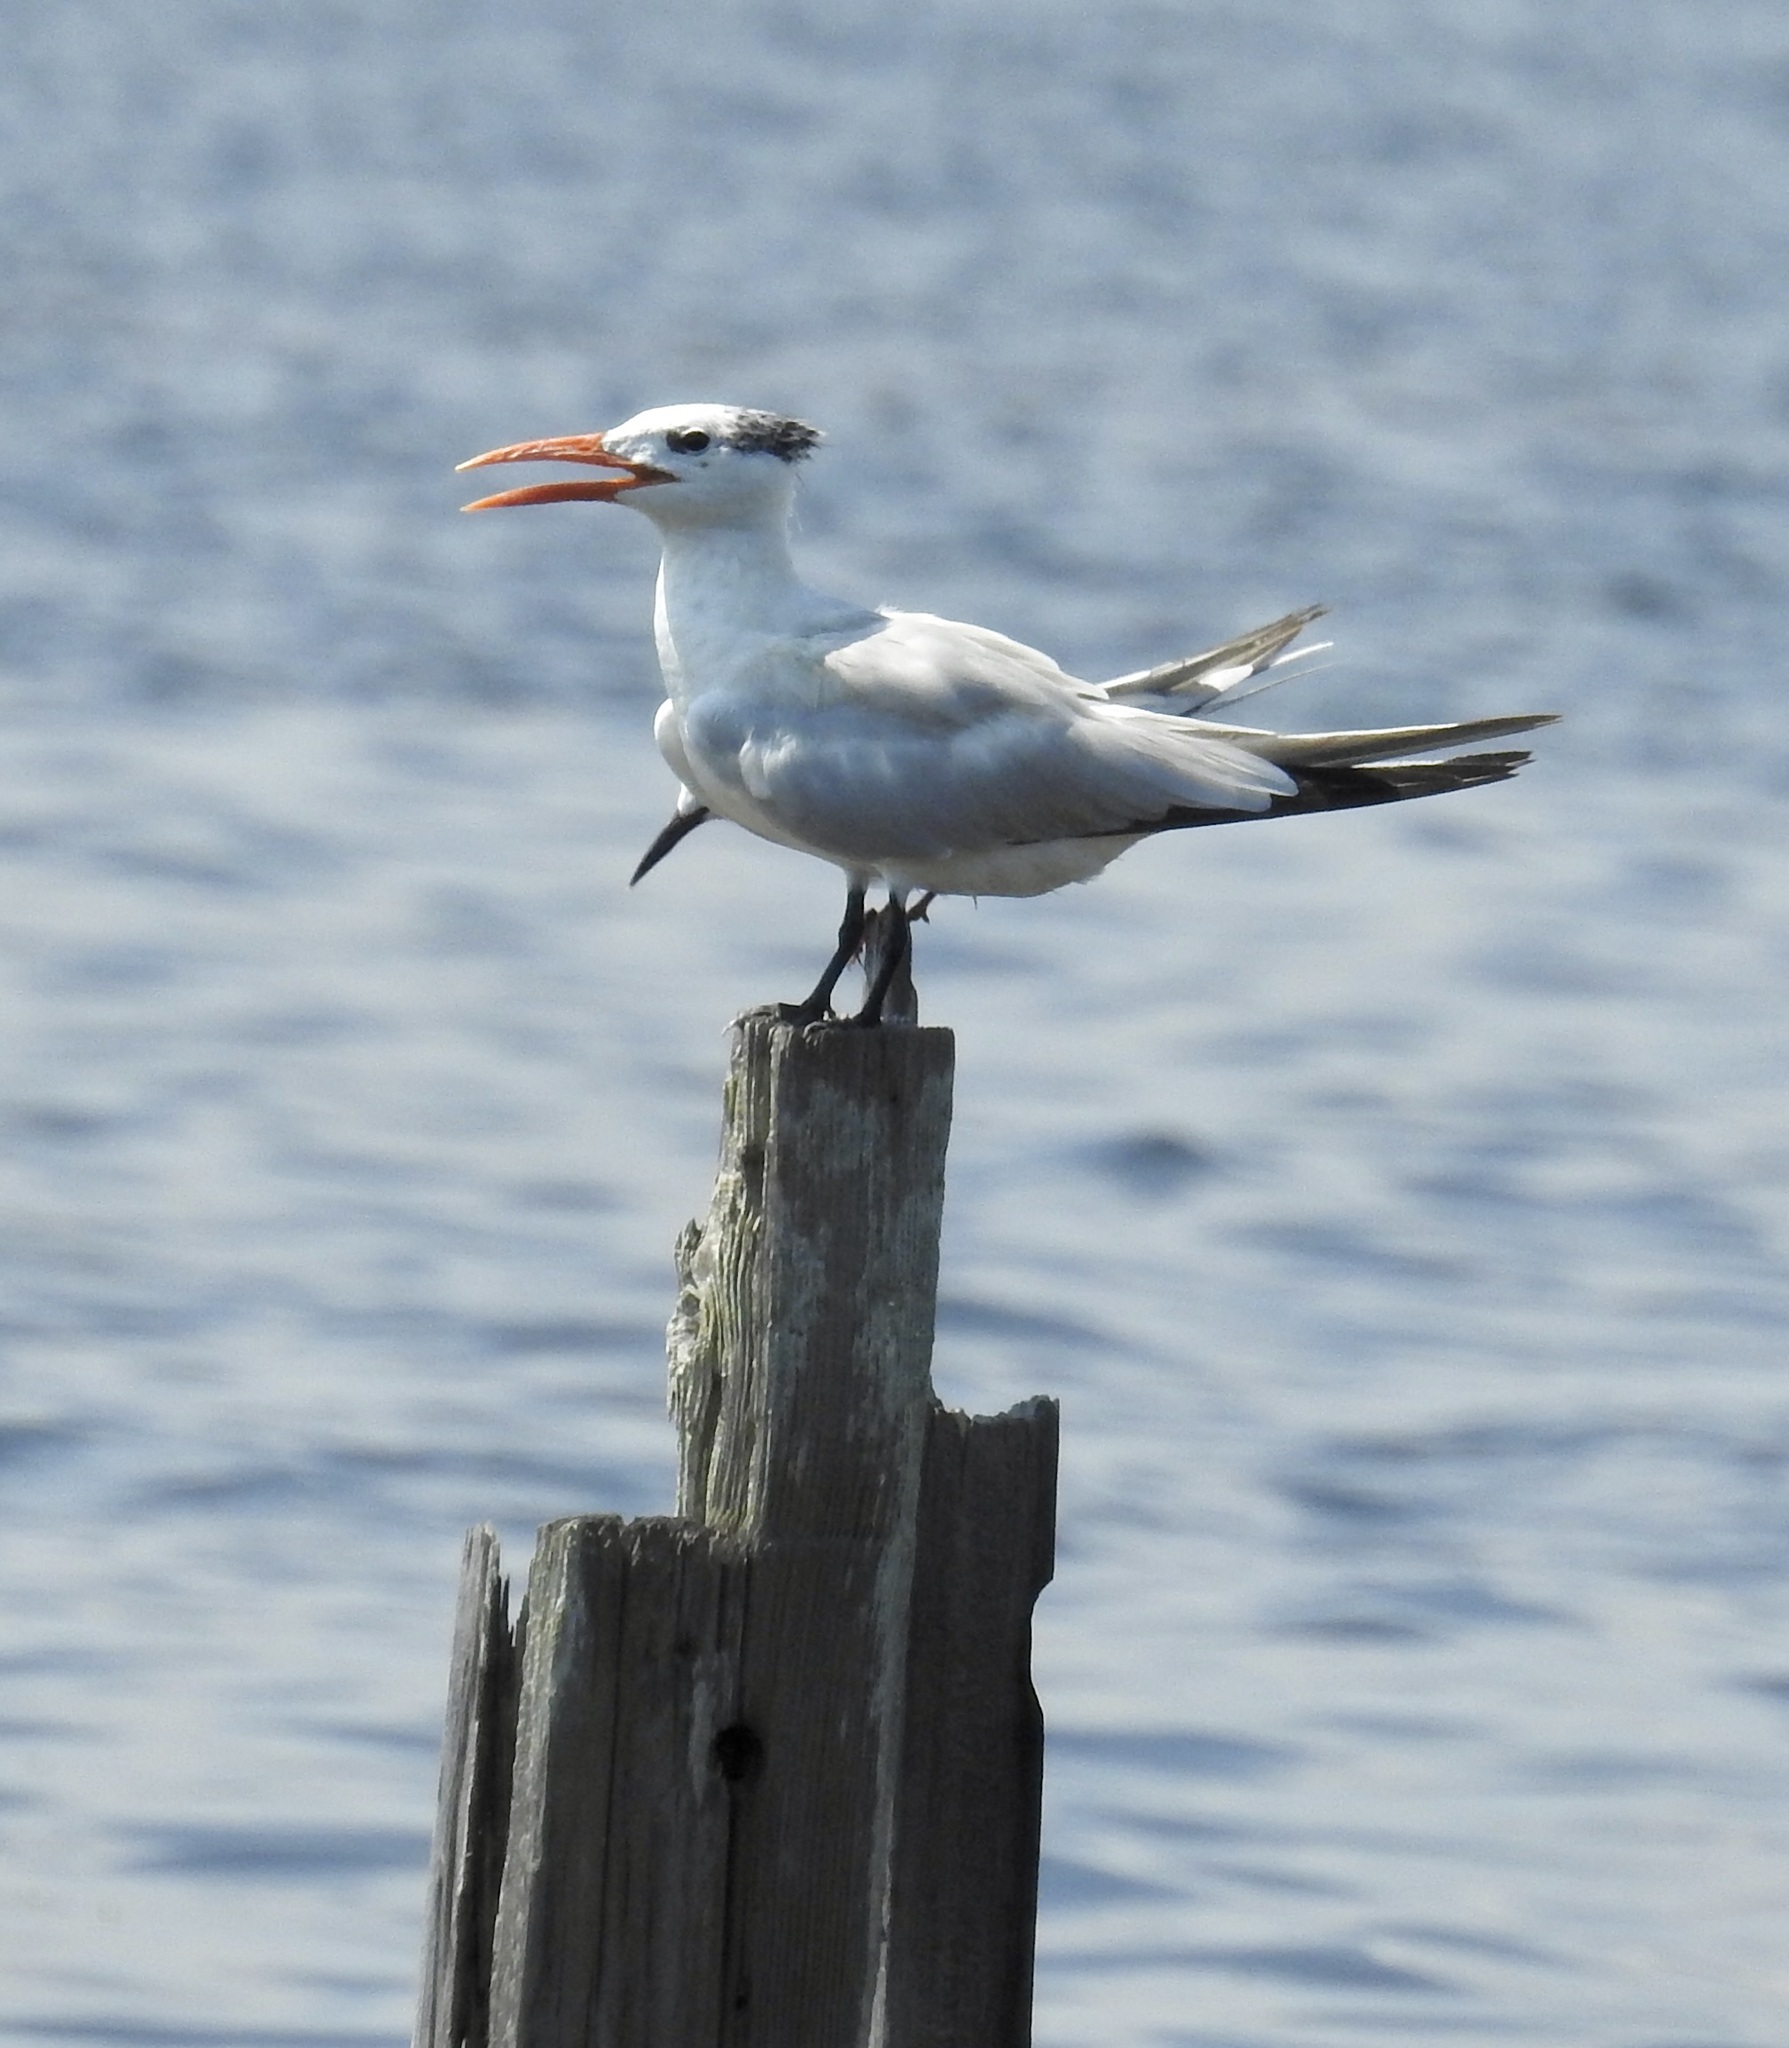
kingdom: Animalia
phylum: Chordata
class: Aves
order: Charadriiformes
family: Laridae
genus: Thalasseus
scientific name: Thalasseus maximus
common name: Royal tern
